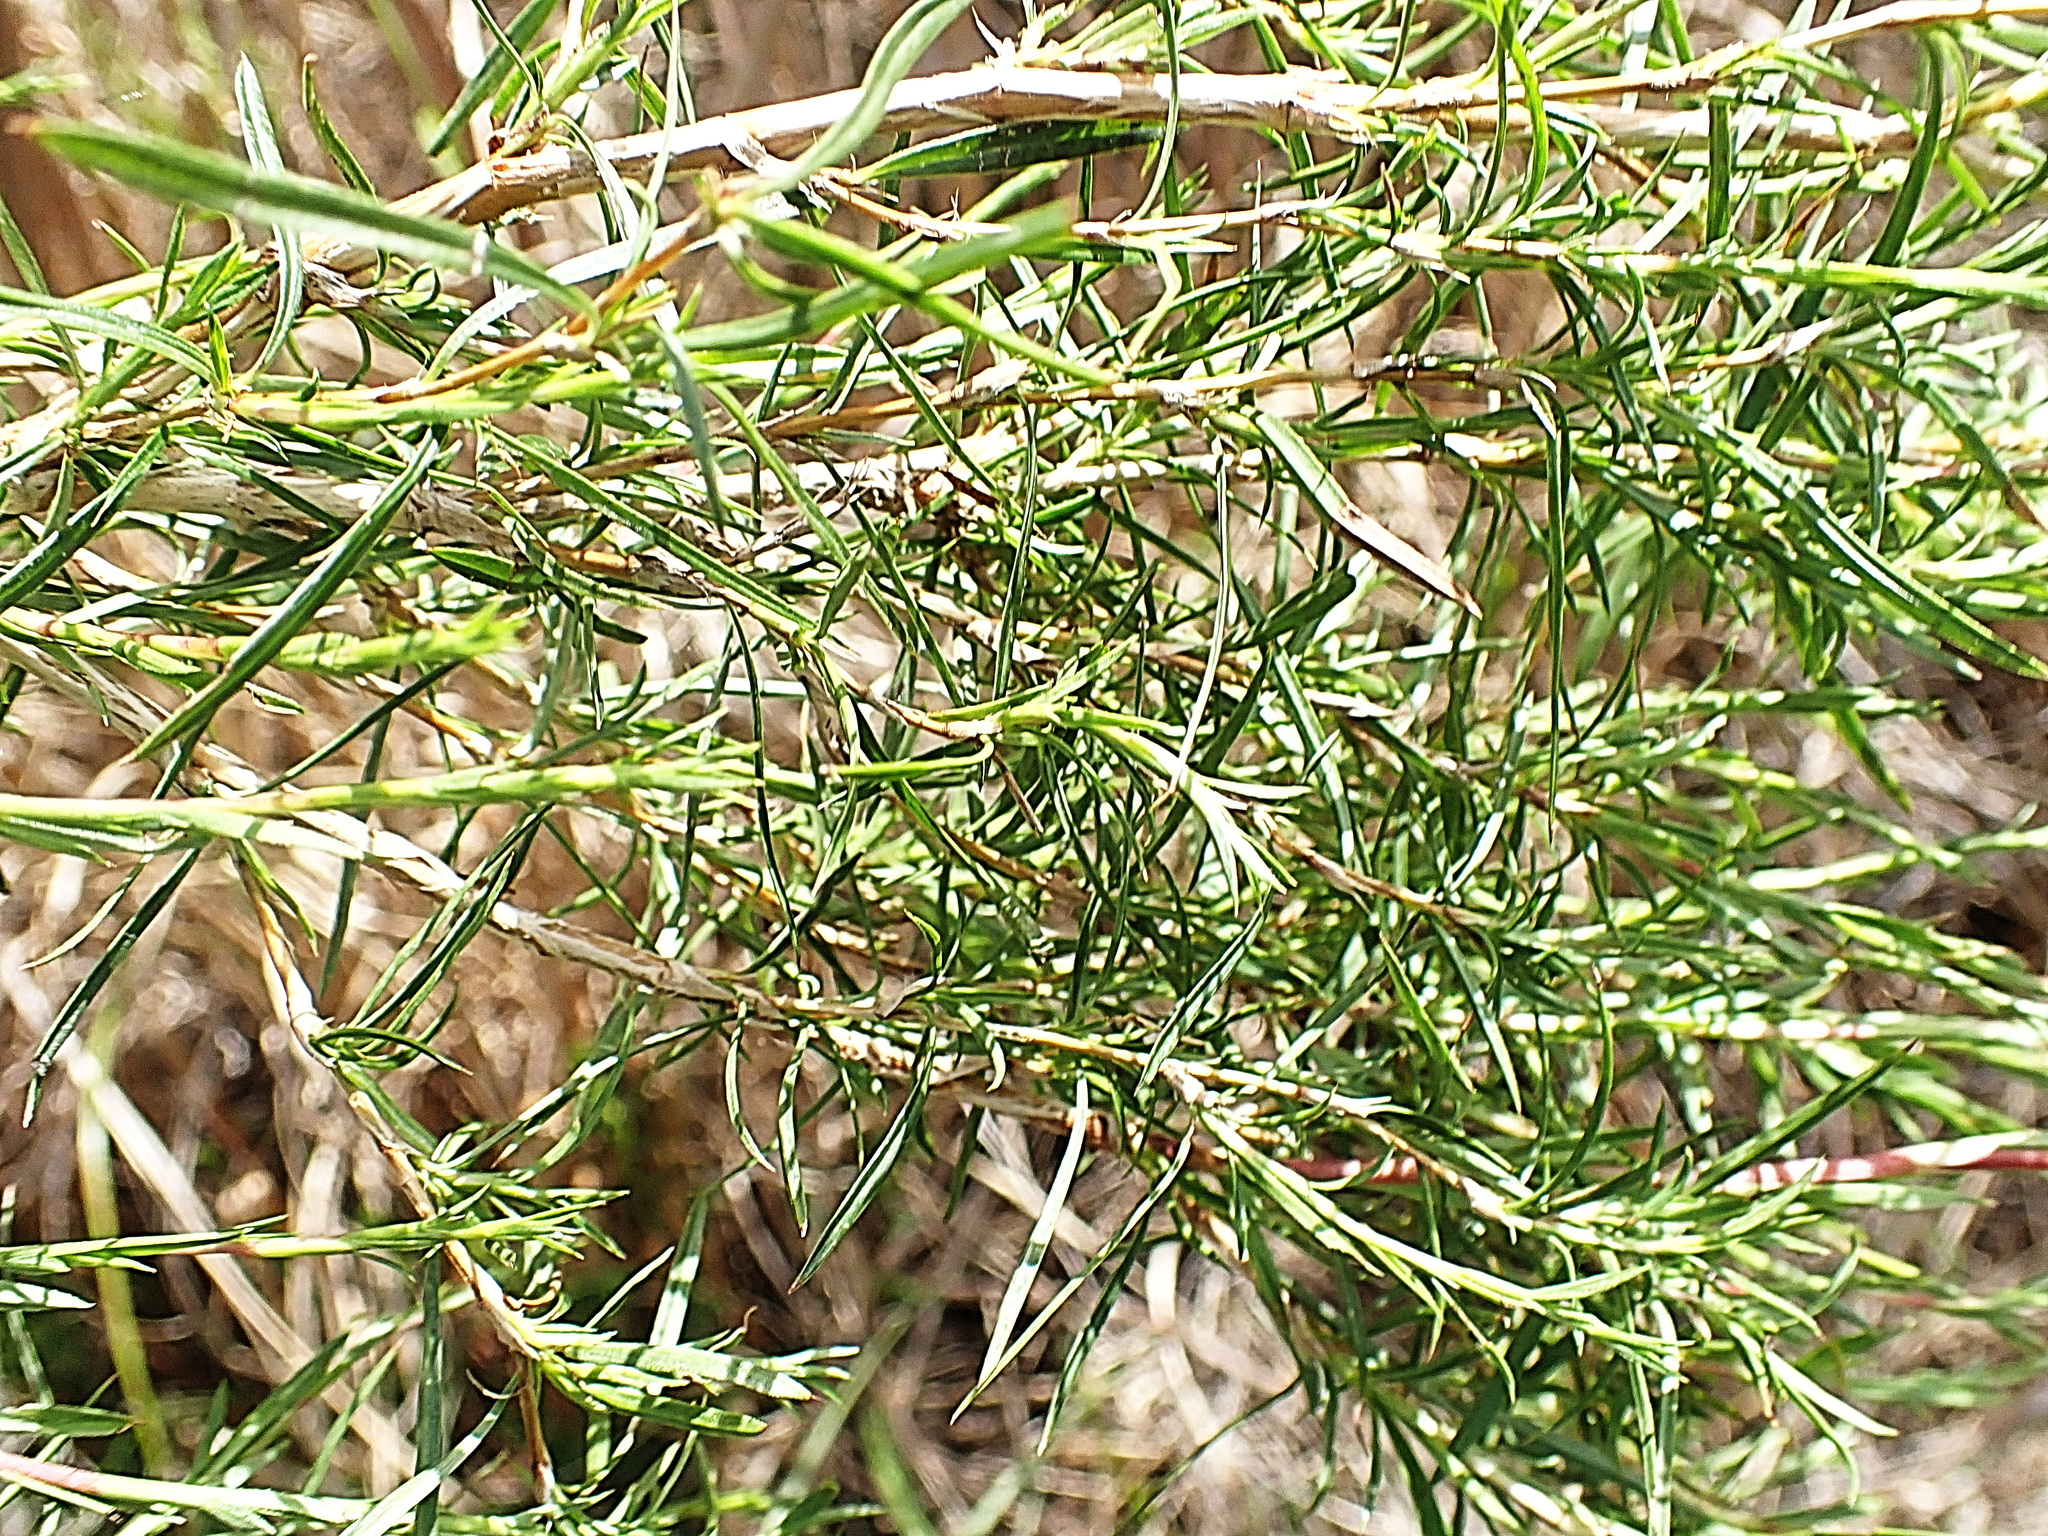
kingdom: Plantae
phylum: Tracheophyta
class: Magnoliopsida
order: Rosales
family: Rosaceae
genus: Cliffortia
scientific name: Cliffortia strobilifera
